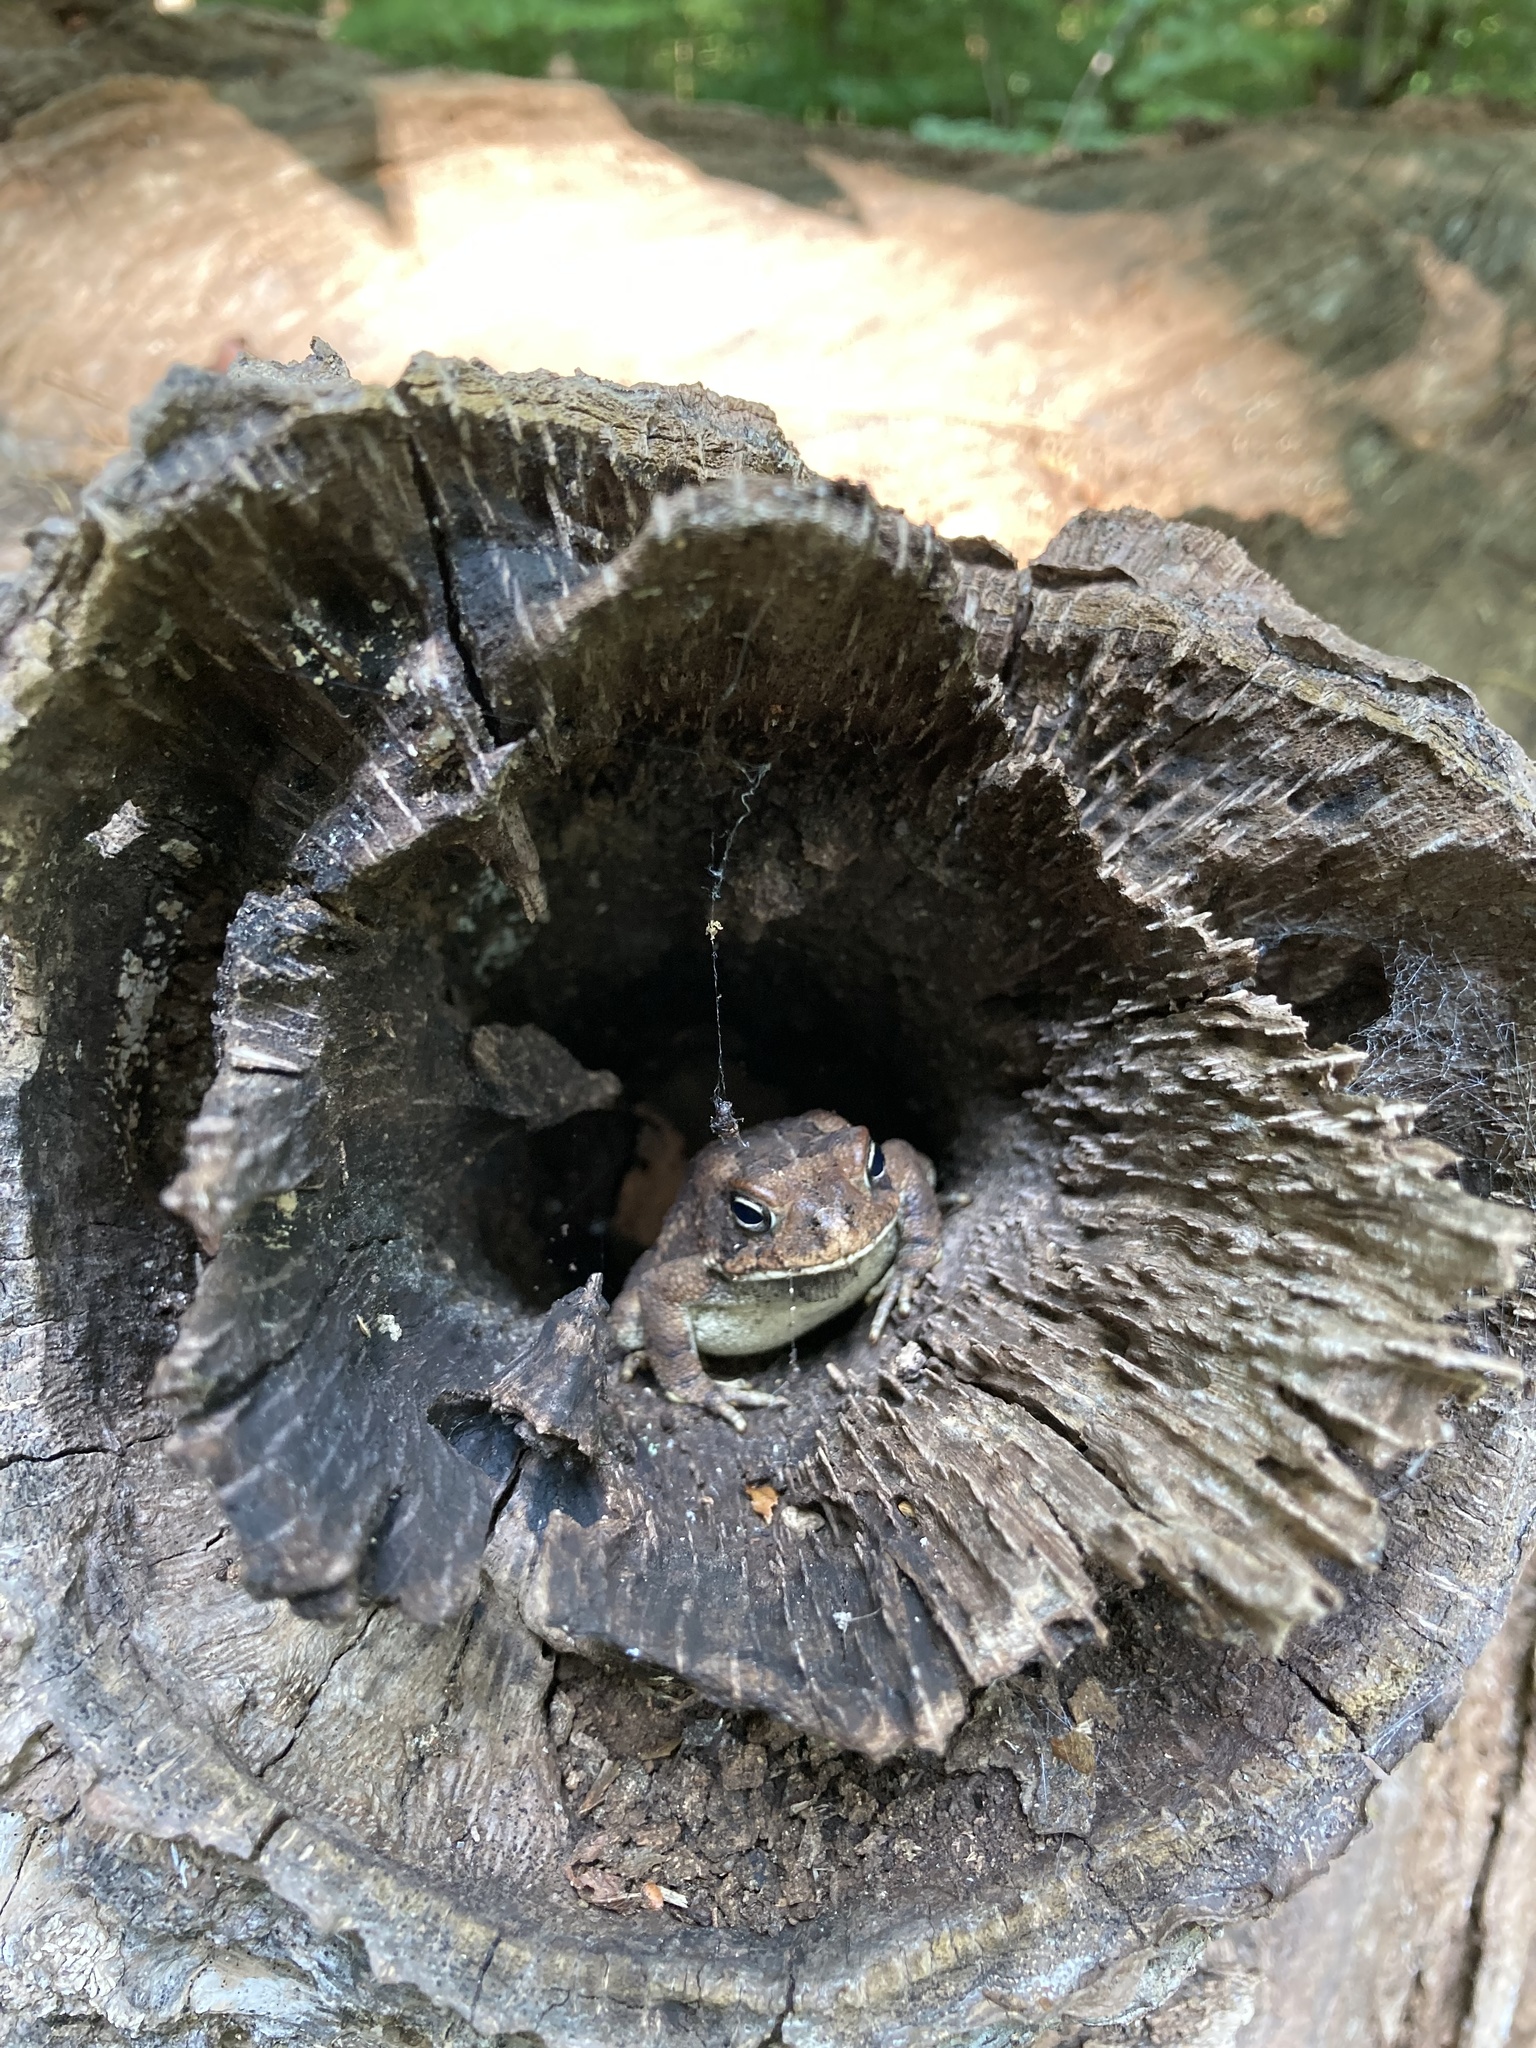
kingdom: Animalia
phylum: Chordata
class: Amphibia
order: Anura
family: Bufonidae
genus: Anaxyrus
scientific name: Anaxyrus fowleri
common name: Fowler's toad
